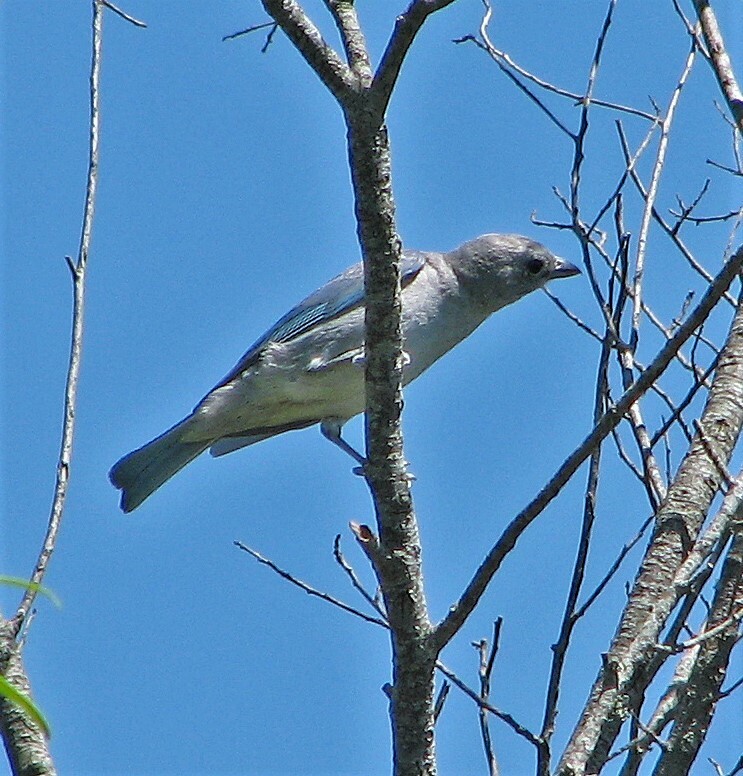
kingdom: Animalia
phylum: Chordata
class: Aves
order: Passeriformes
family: Thraupidae
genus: Thraupis
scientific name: Thraupis sayaca
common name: Sayaca tanager
